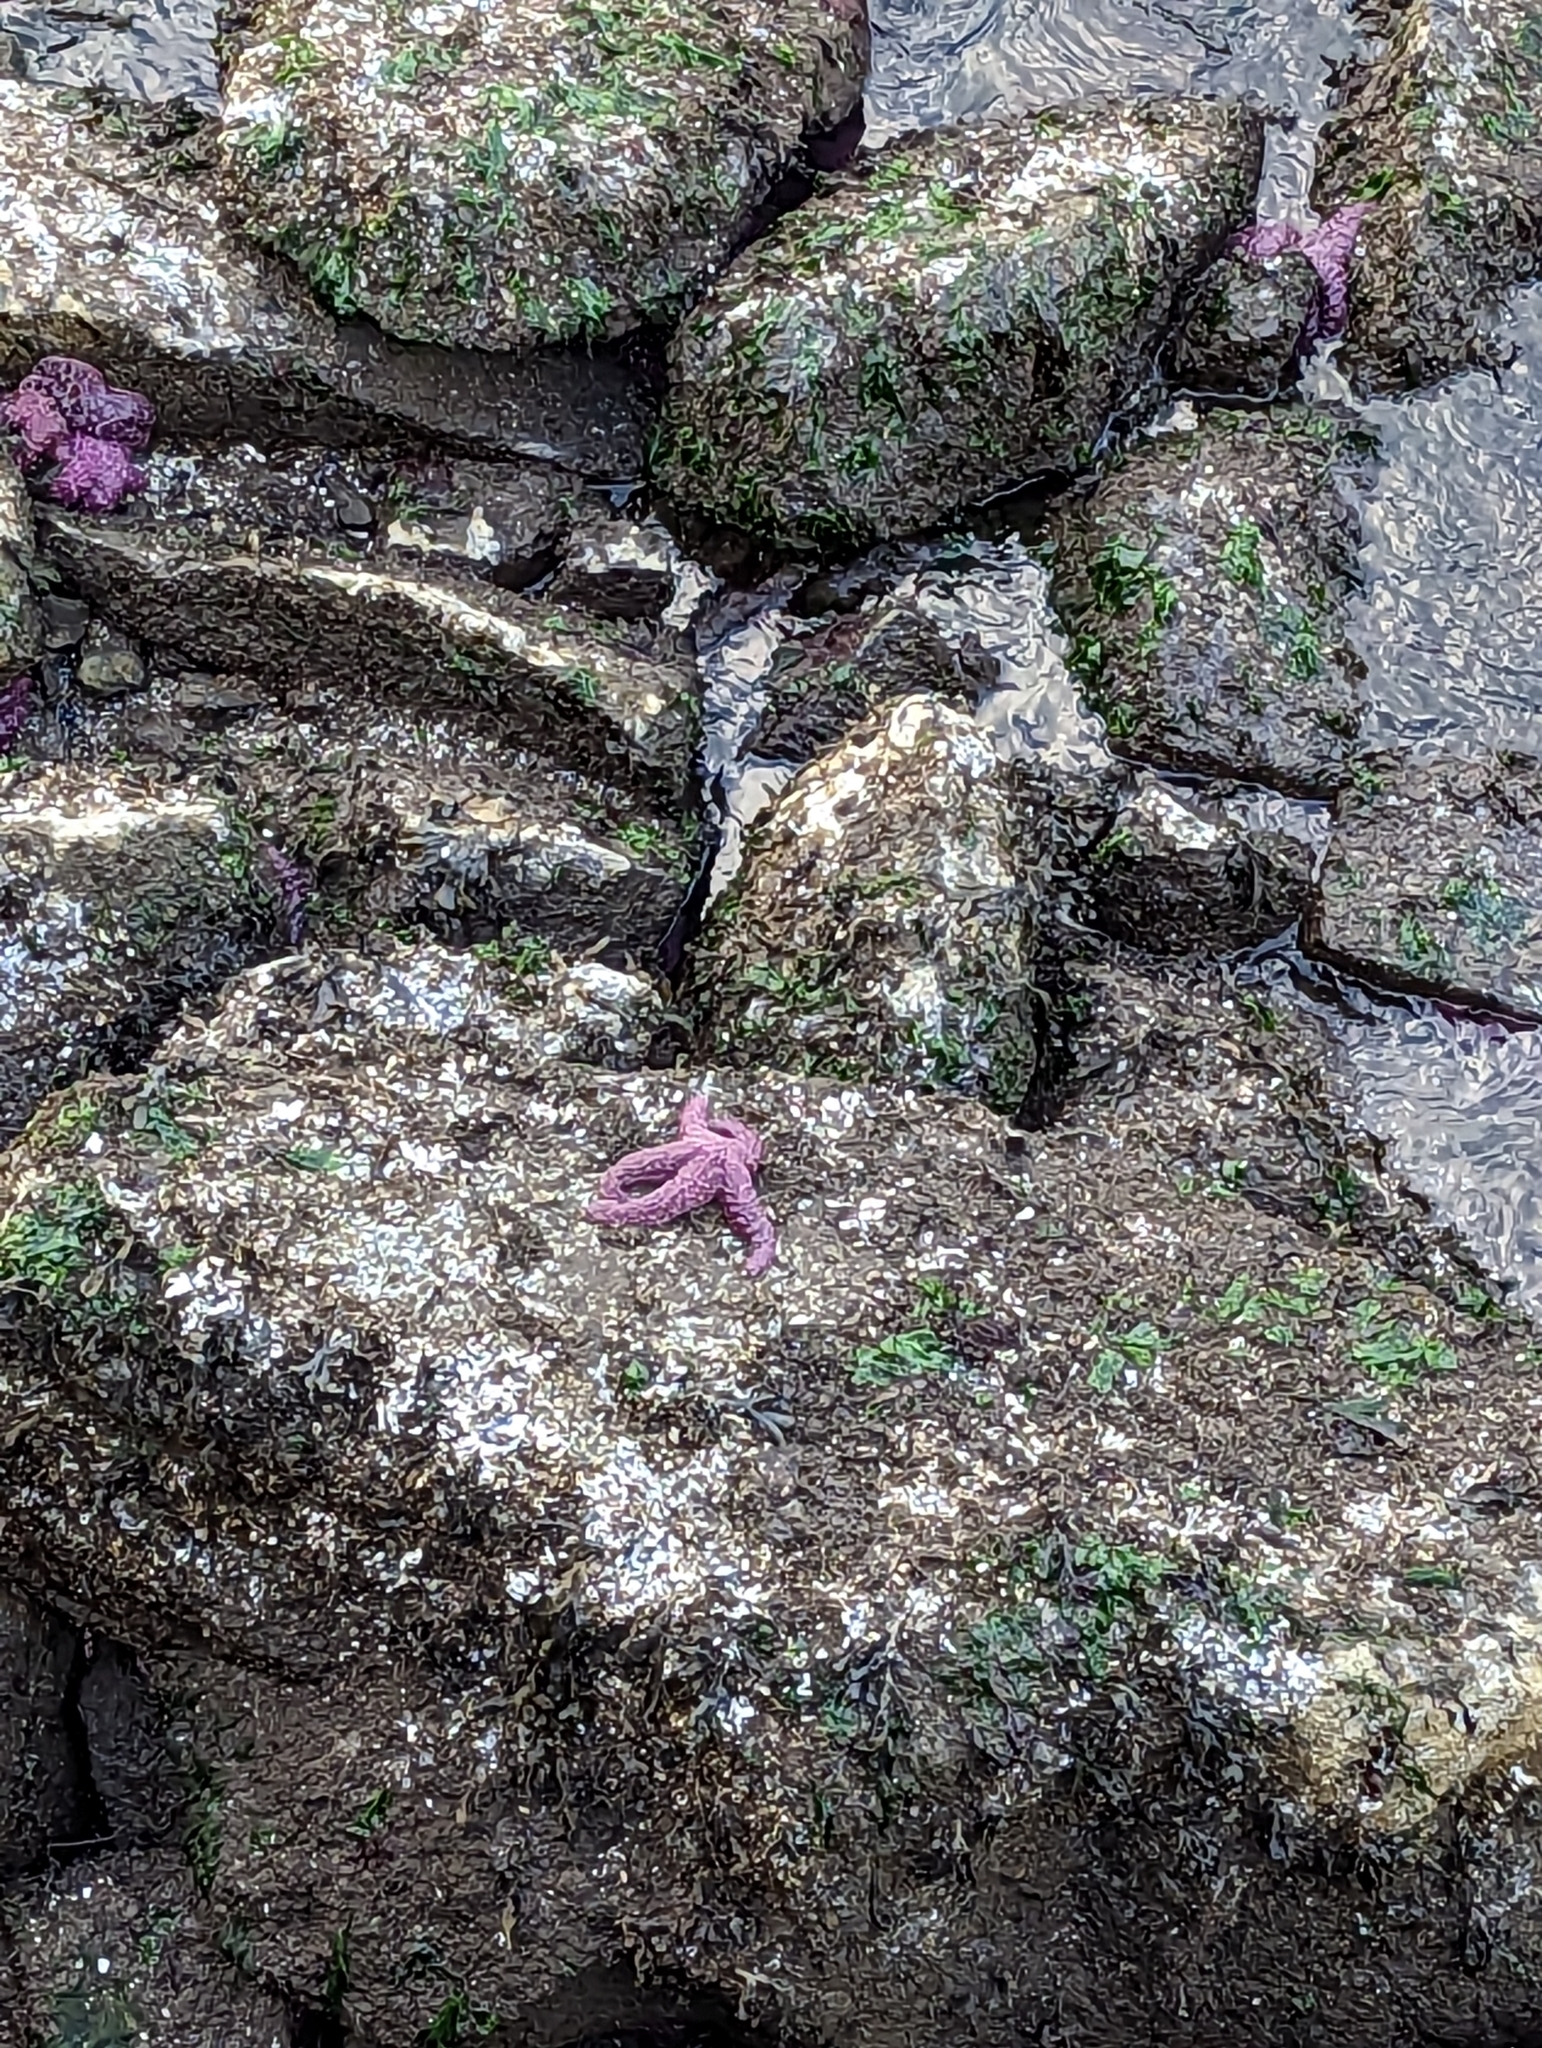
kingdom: Animalia
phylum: Echinodermata
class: Asteroidea
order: Forcipulatida
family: Asteriidae
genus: Pisaster
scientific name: Pisaster ochraceus
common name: Ochre stars
